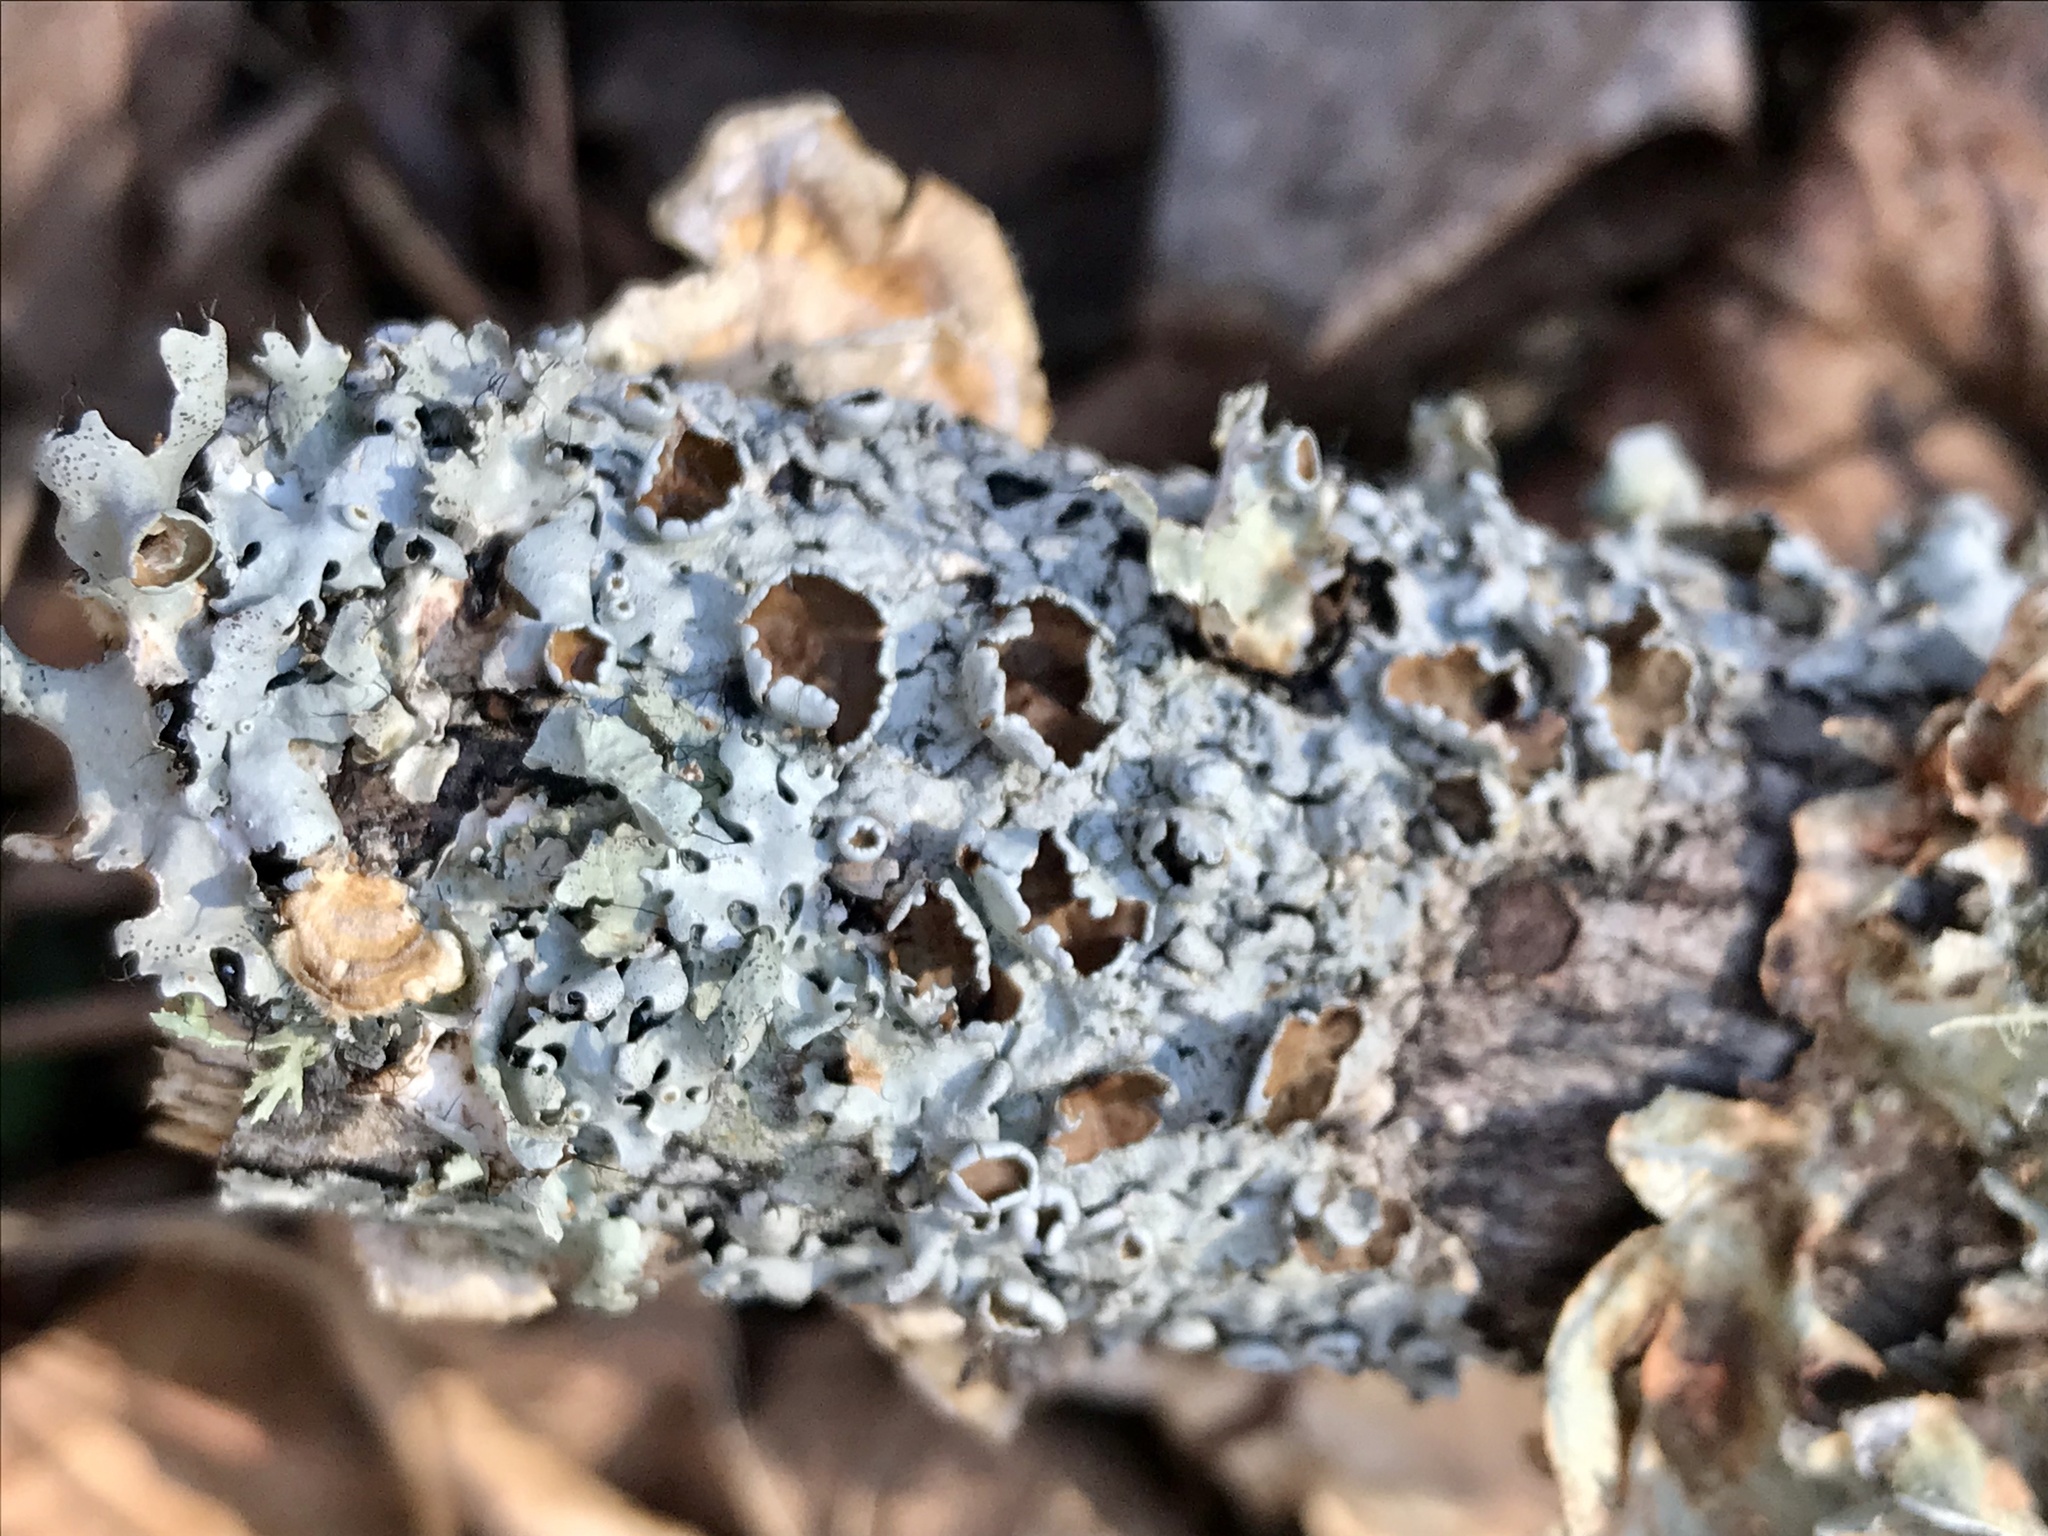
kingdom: Fungi
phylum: Ascomycota
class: Lecanoromycetes
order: Lecanorales
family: Parmeliaceae
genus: Parmotrema
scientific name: Parmotrema perforatum
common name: Perforated ruffle lichen
